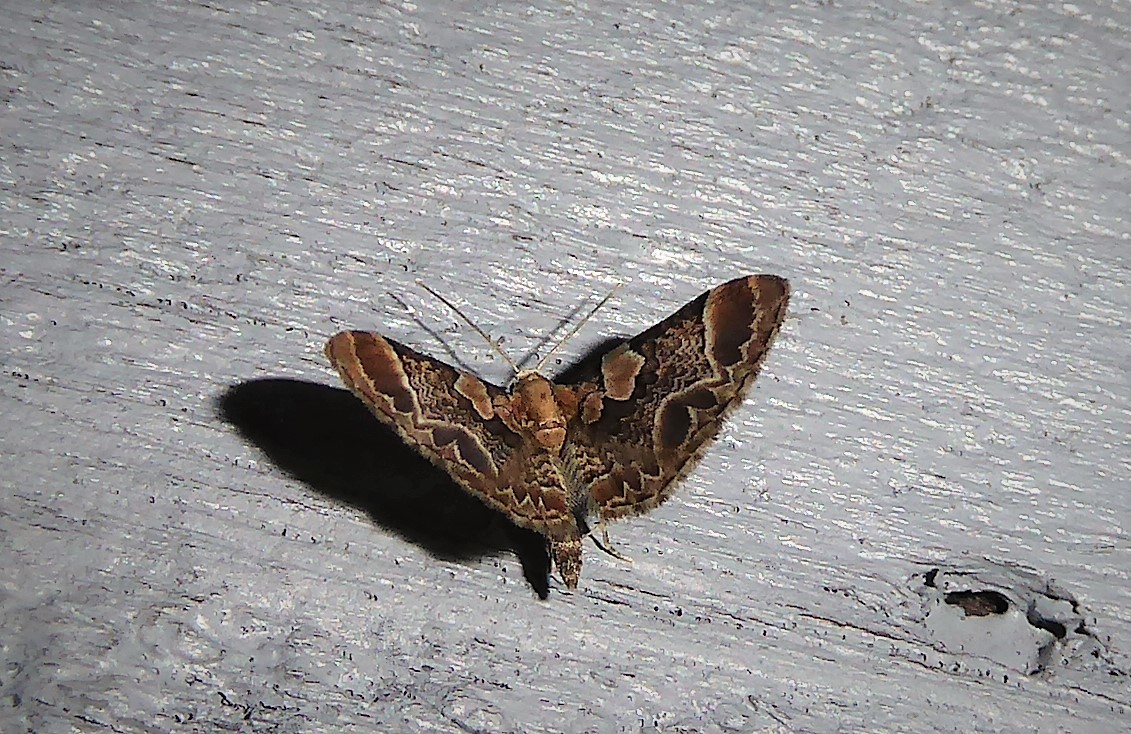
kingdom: Animalia
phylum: Arthropoda
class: Insecta
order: Lepidoptera
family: Geometridae
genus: Chloroclystis
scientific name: Chloroclystis
